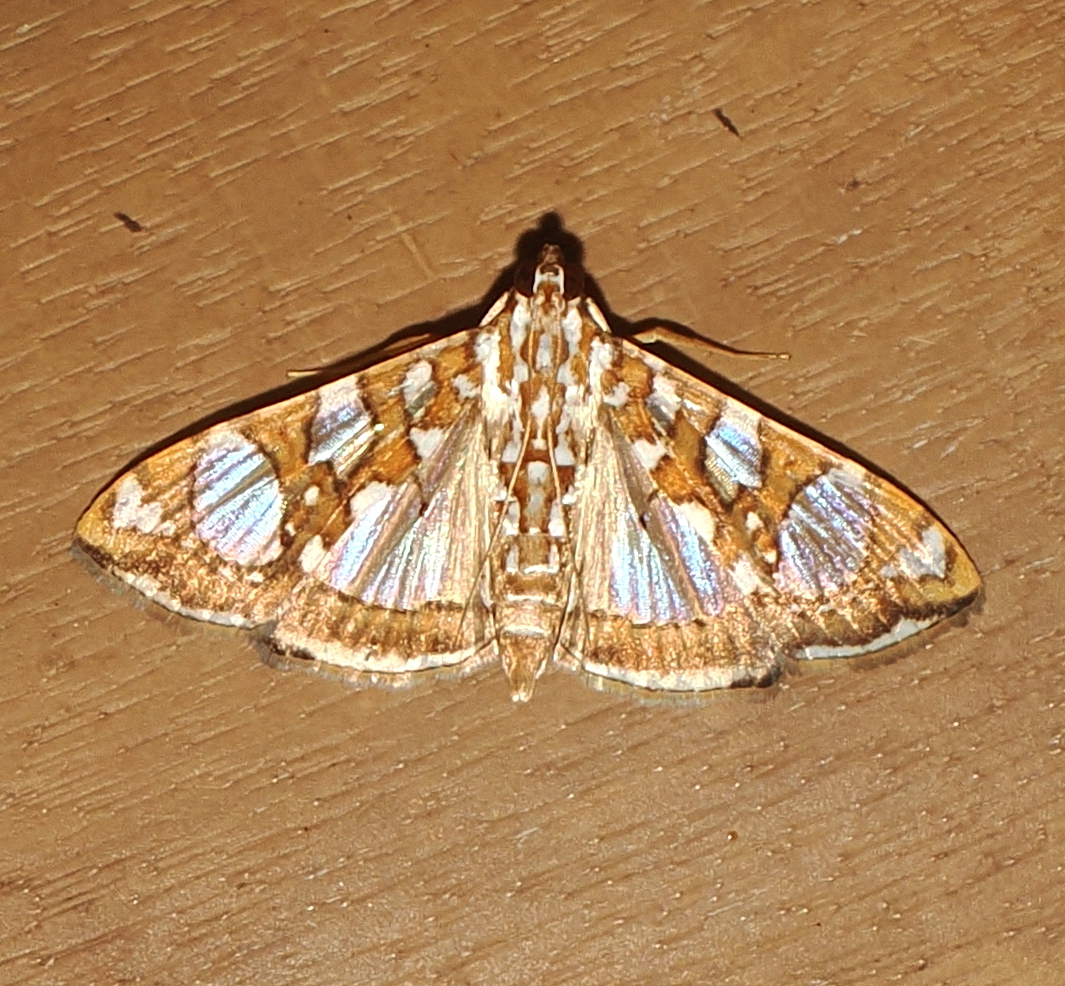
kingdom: Animalia
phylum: Arthropoda
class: Insecta
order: Lepidoptera
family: Crambidae
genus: Glyphodes
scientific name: Glyphodes sibillalis
